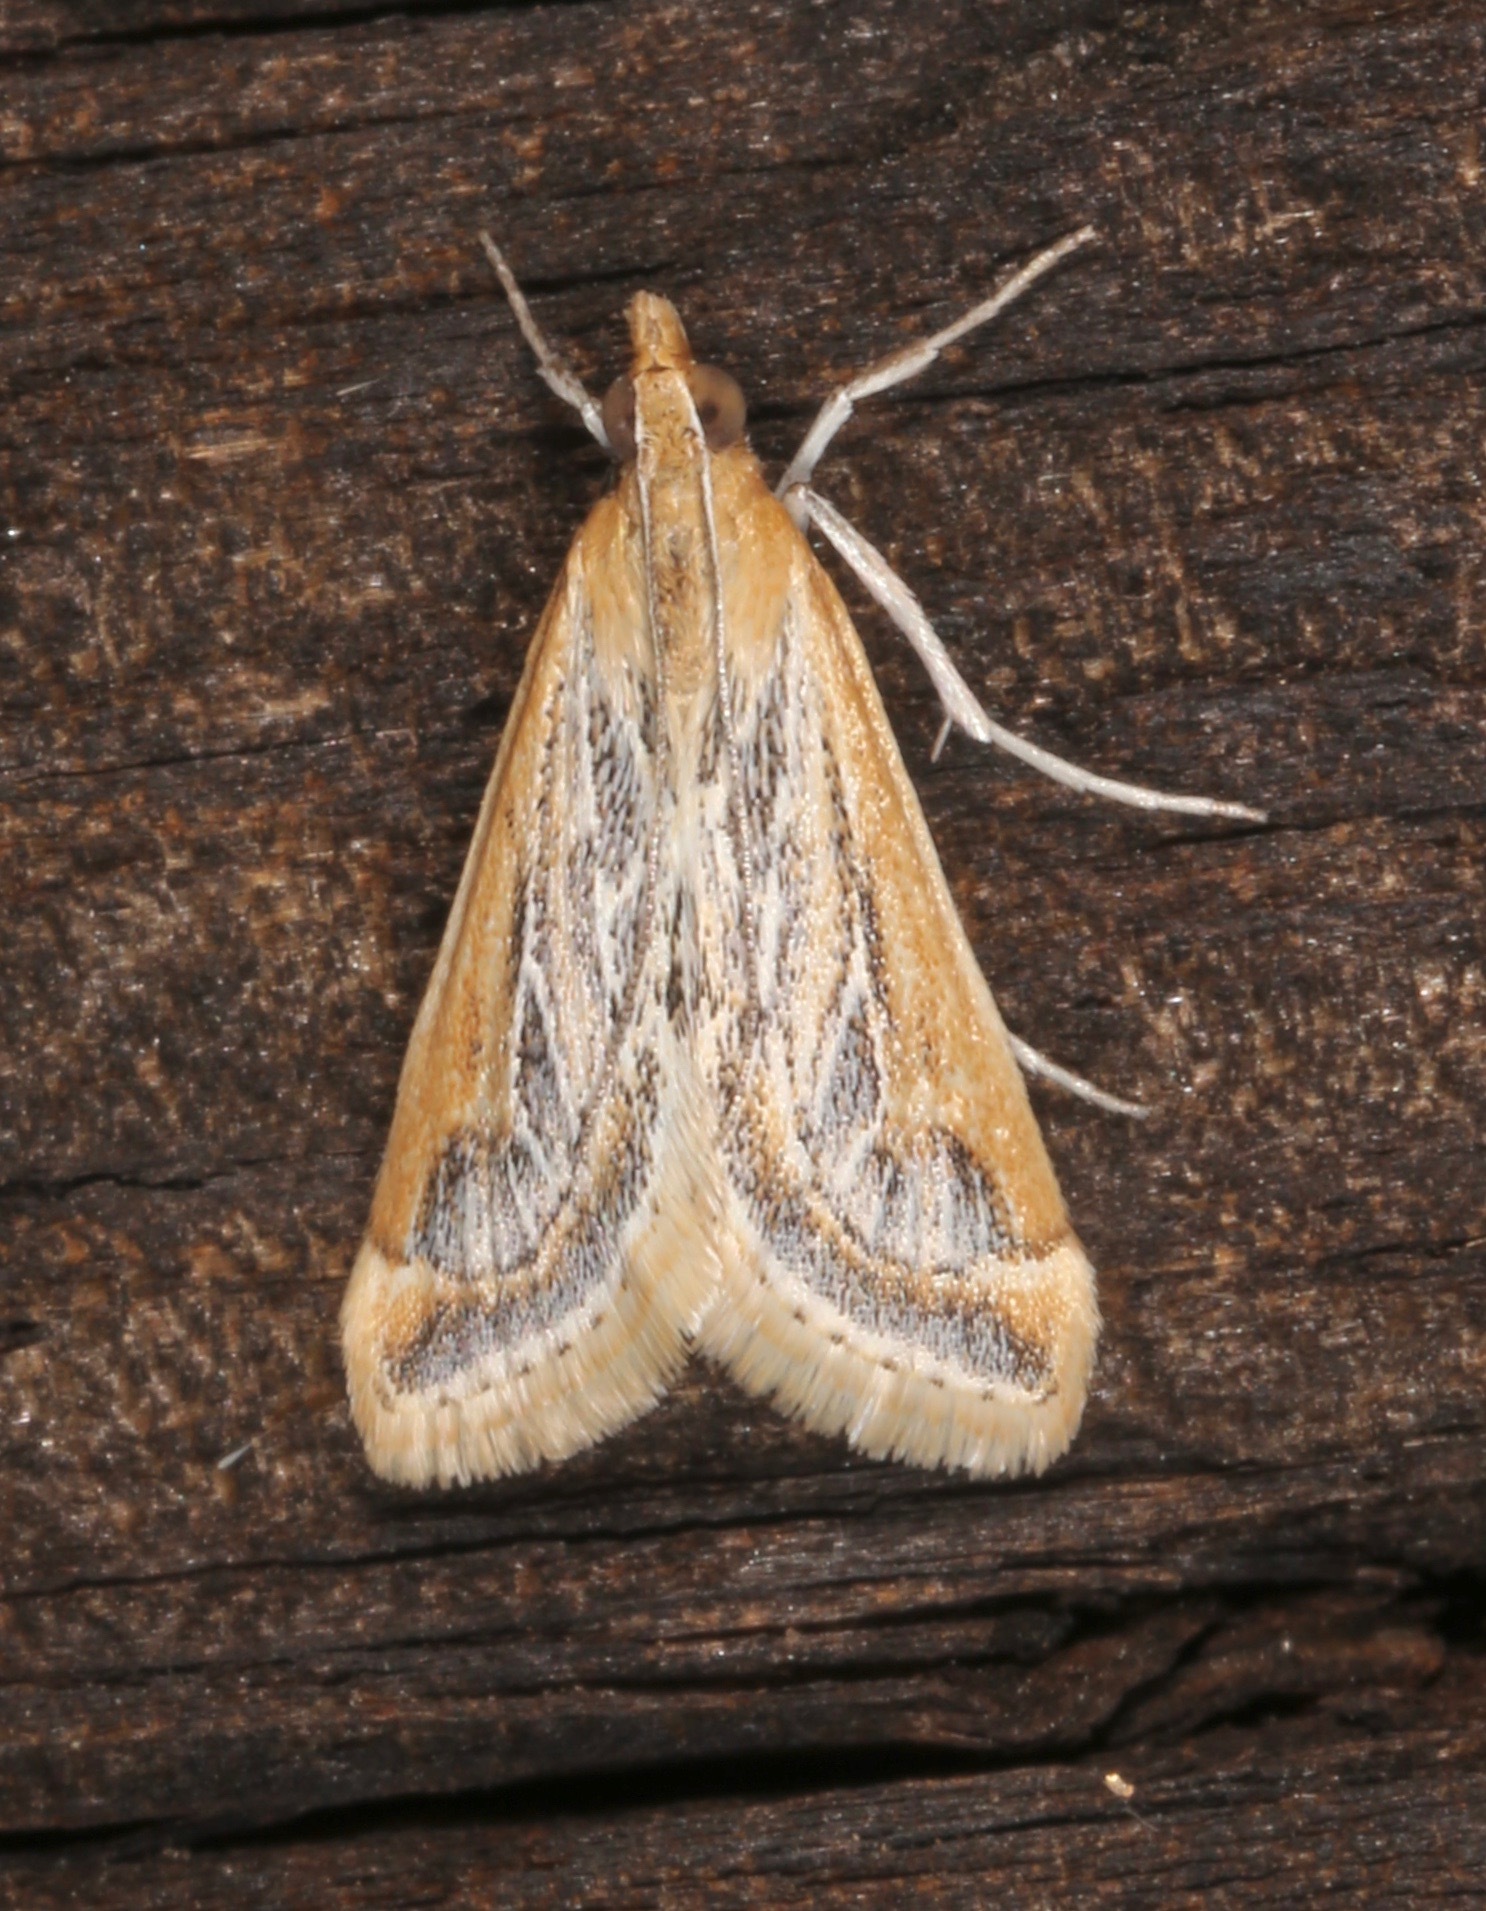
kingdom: Animalia
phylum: Arthropoda
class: Insecta
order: Lepidoptera
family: Crambidae
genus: Pyrausta
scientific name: Pyrausta linealis
